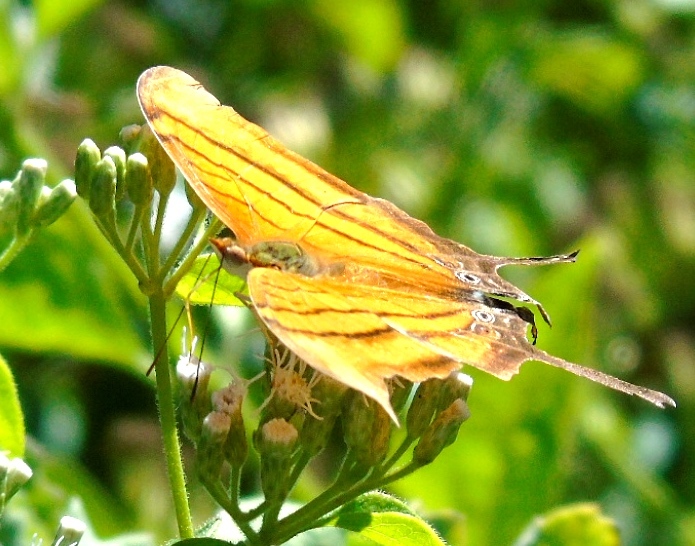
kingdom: Animalia
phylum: Arthropoda
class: Insecta
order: Lepidoptera
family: Nymphalidae
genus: Marpesia
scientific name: Marpesia petreus
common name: Red dagger wing
